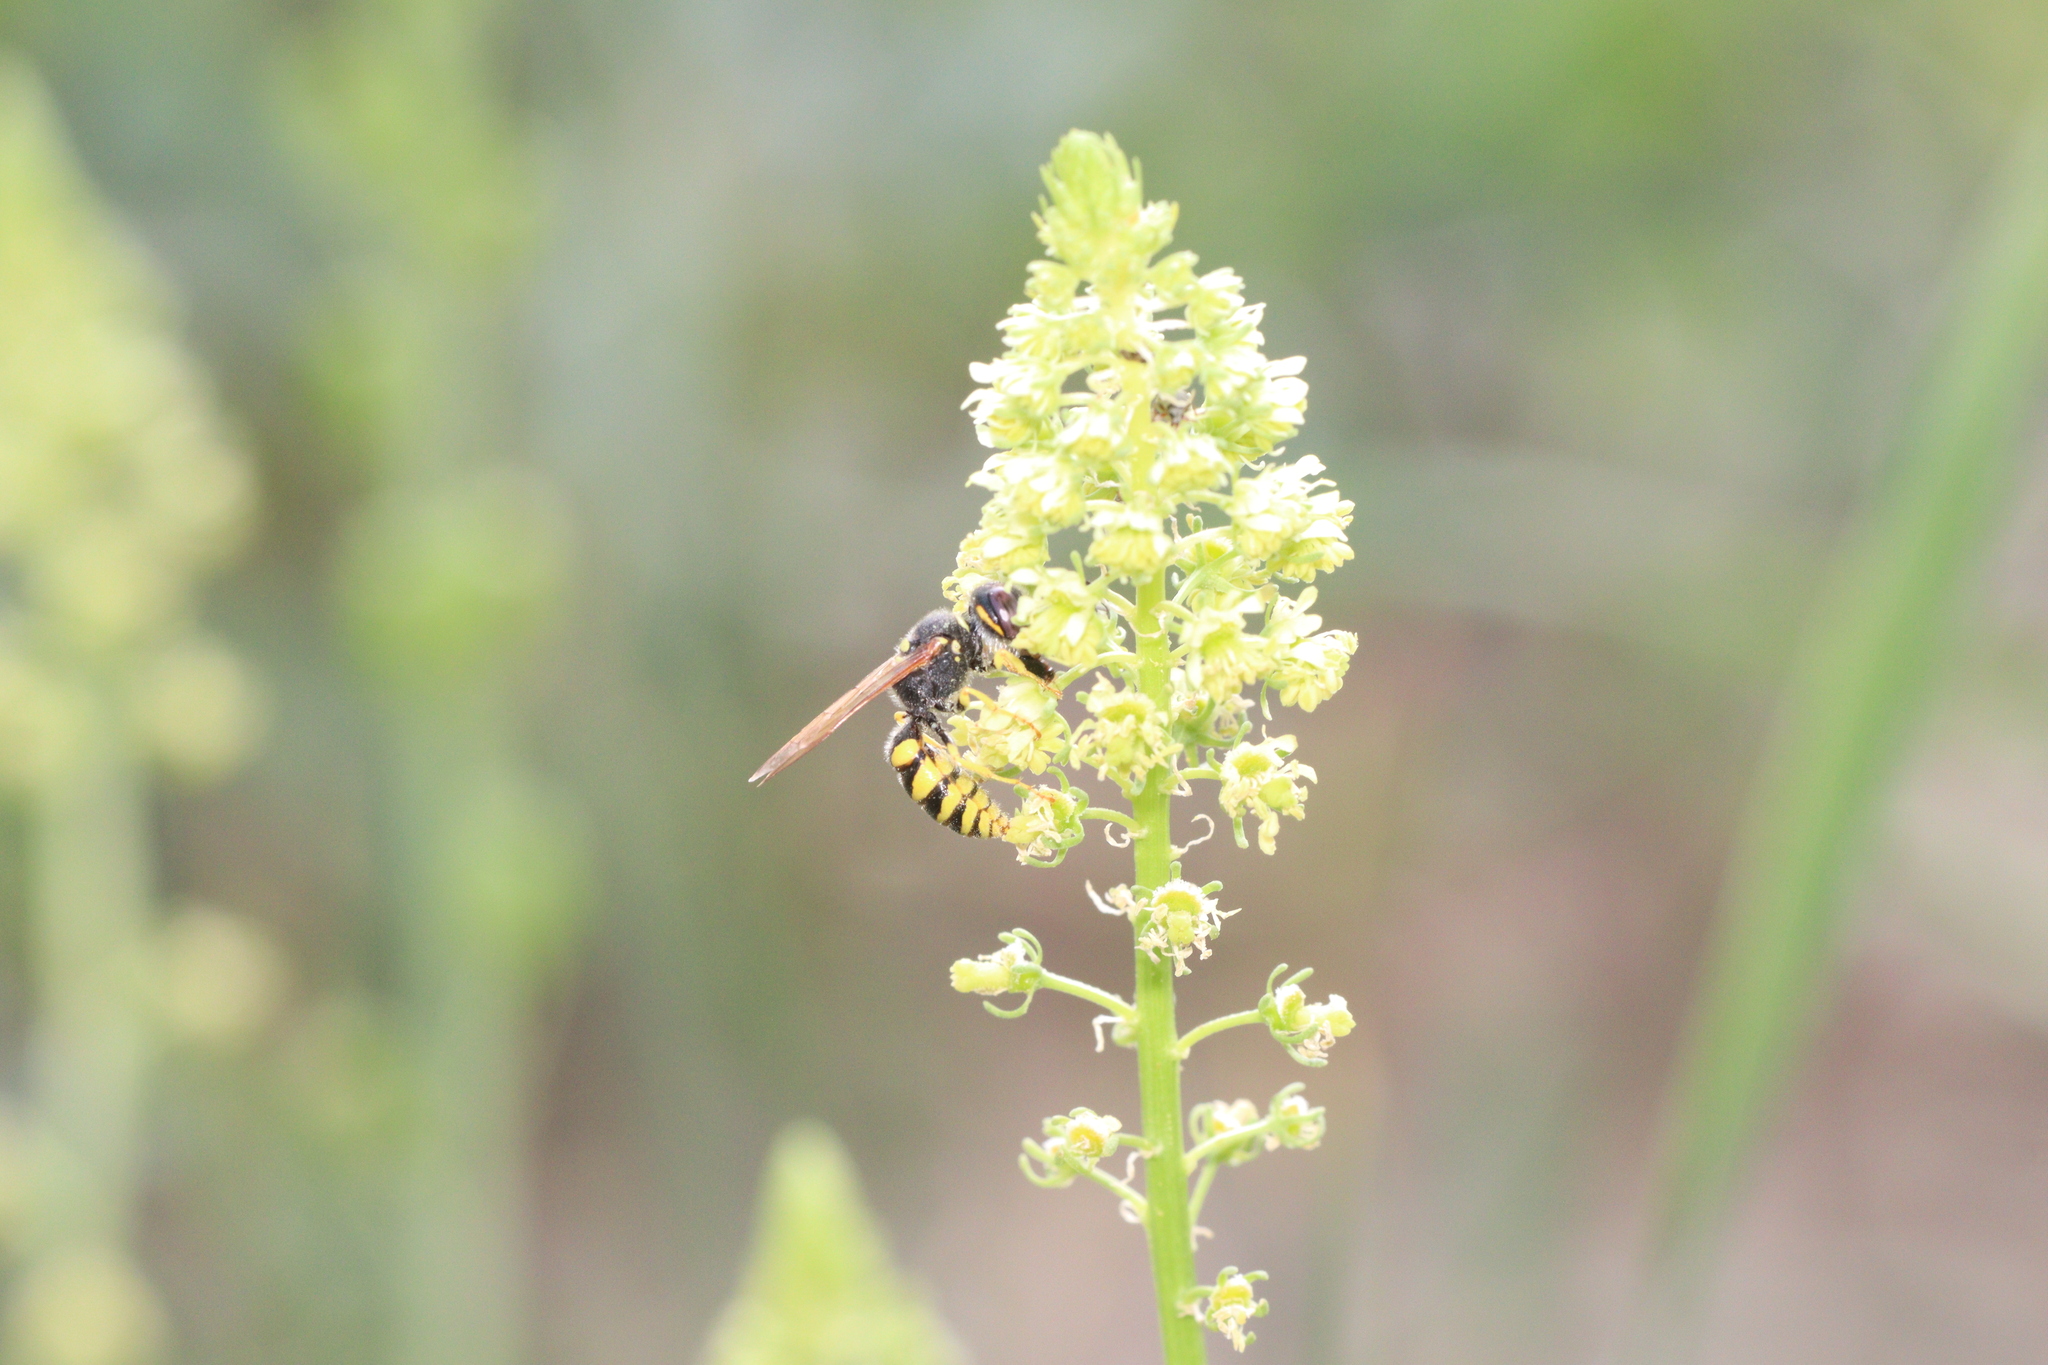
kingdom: Animalia
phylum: Arthropoda
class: Insecta
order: Hymenoptera
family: Crabronidae
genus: Philanthus
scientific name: Philanthus triangulum
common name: Bee wolf
